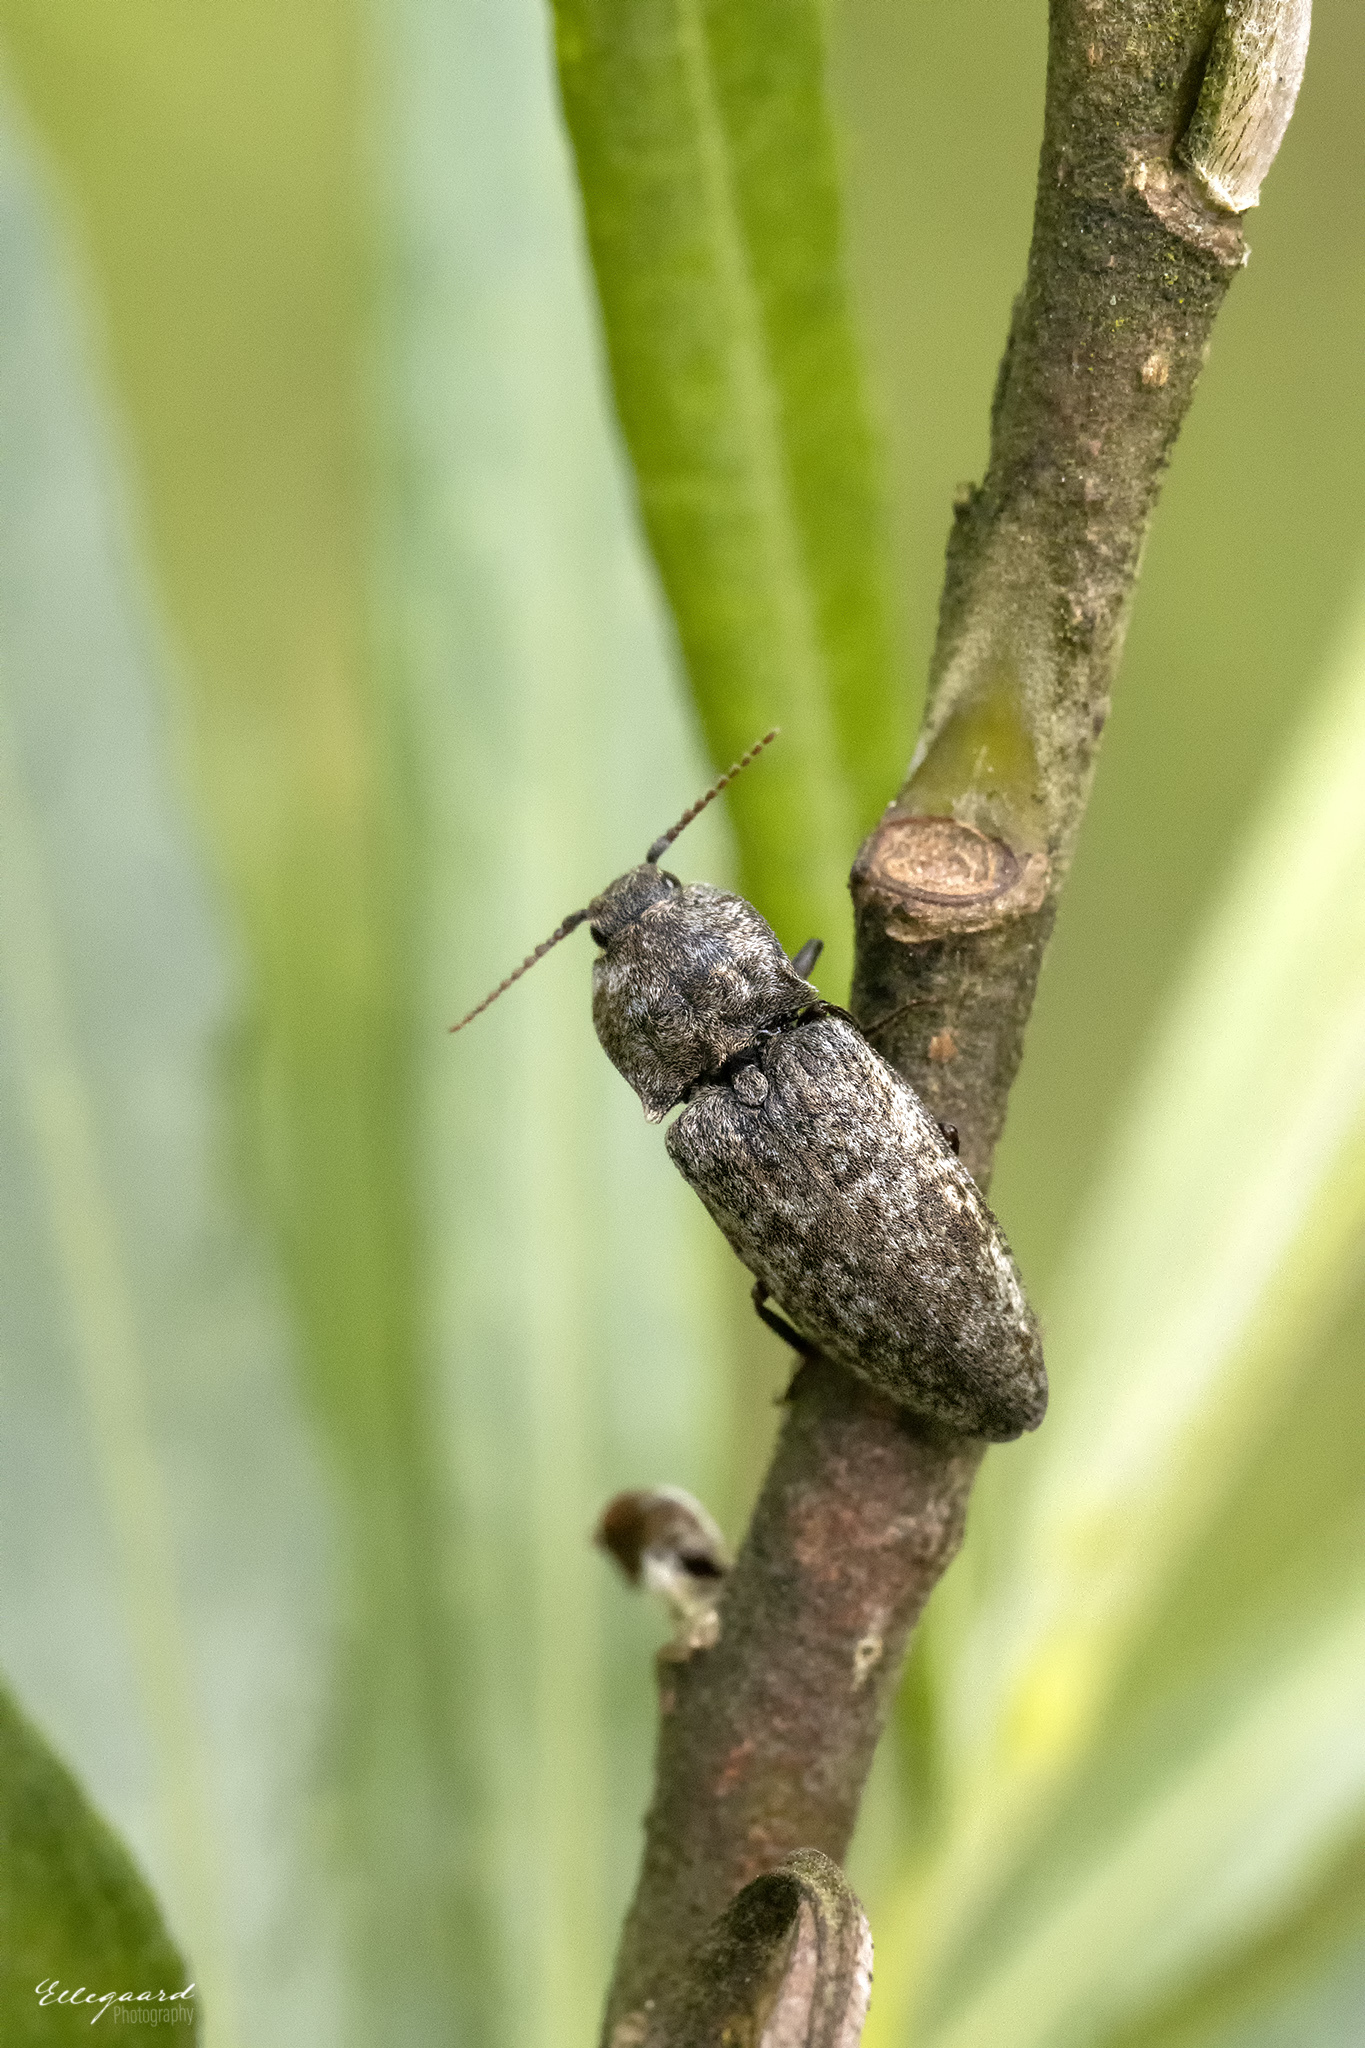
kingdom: Animalia
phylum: Arthropoda
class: Insecta
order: Coleoptera
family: Elateridae
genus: Agrypnus
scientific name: Agrypnus murinus
